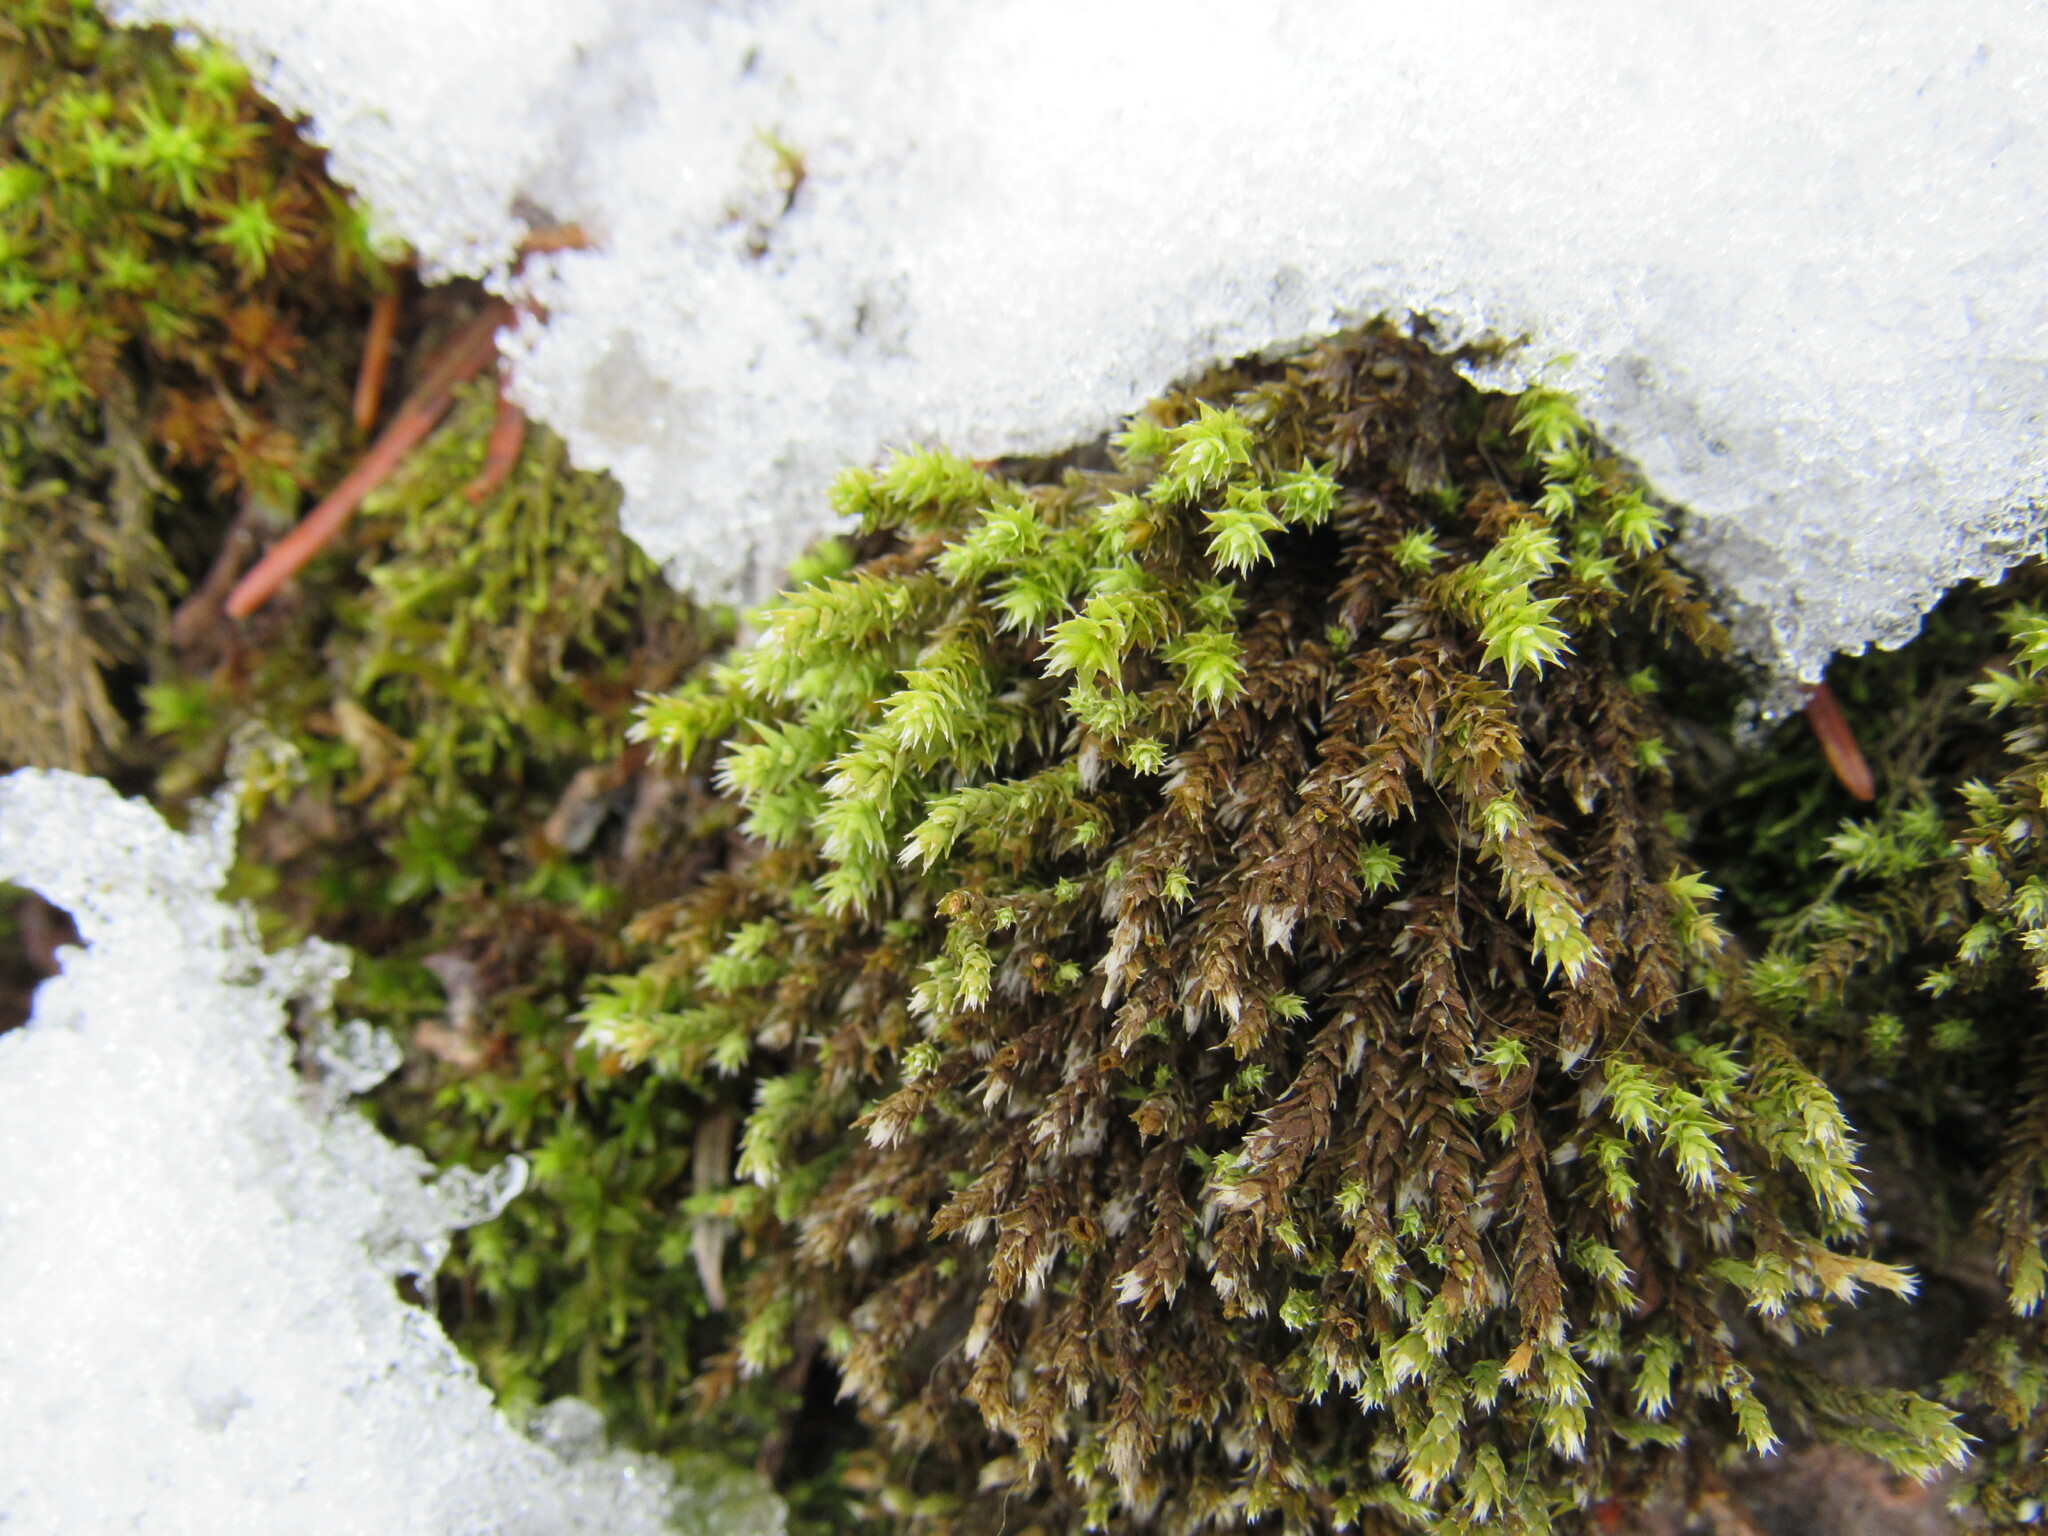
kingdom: Plantae
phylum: Bryophyta
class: Bryopsida
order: Hedwigiales
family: Hedwigiaceae
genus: Hedwigia
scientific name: Hedwigia ciliata
